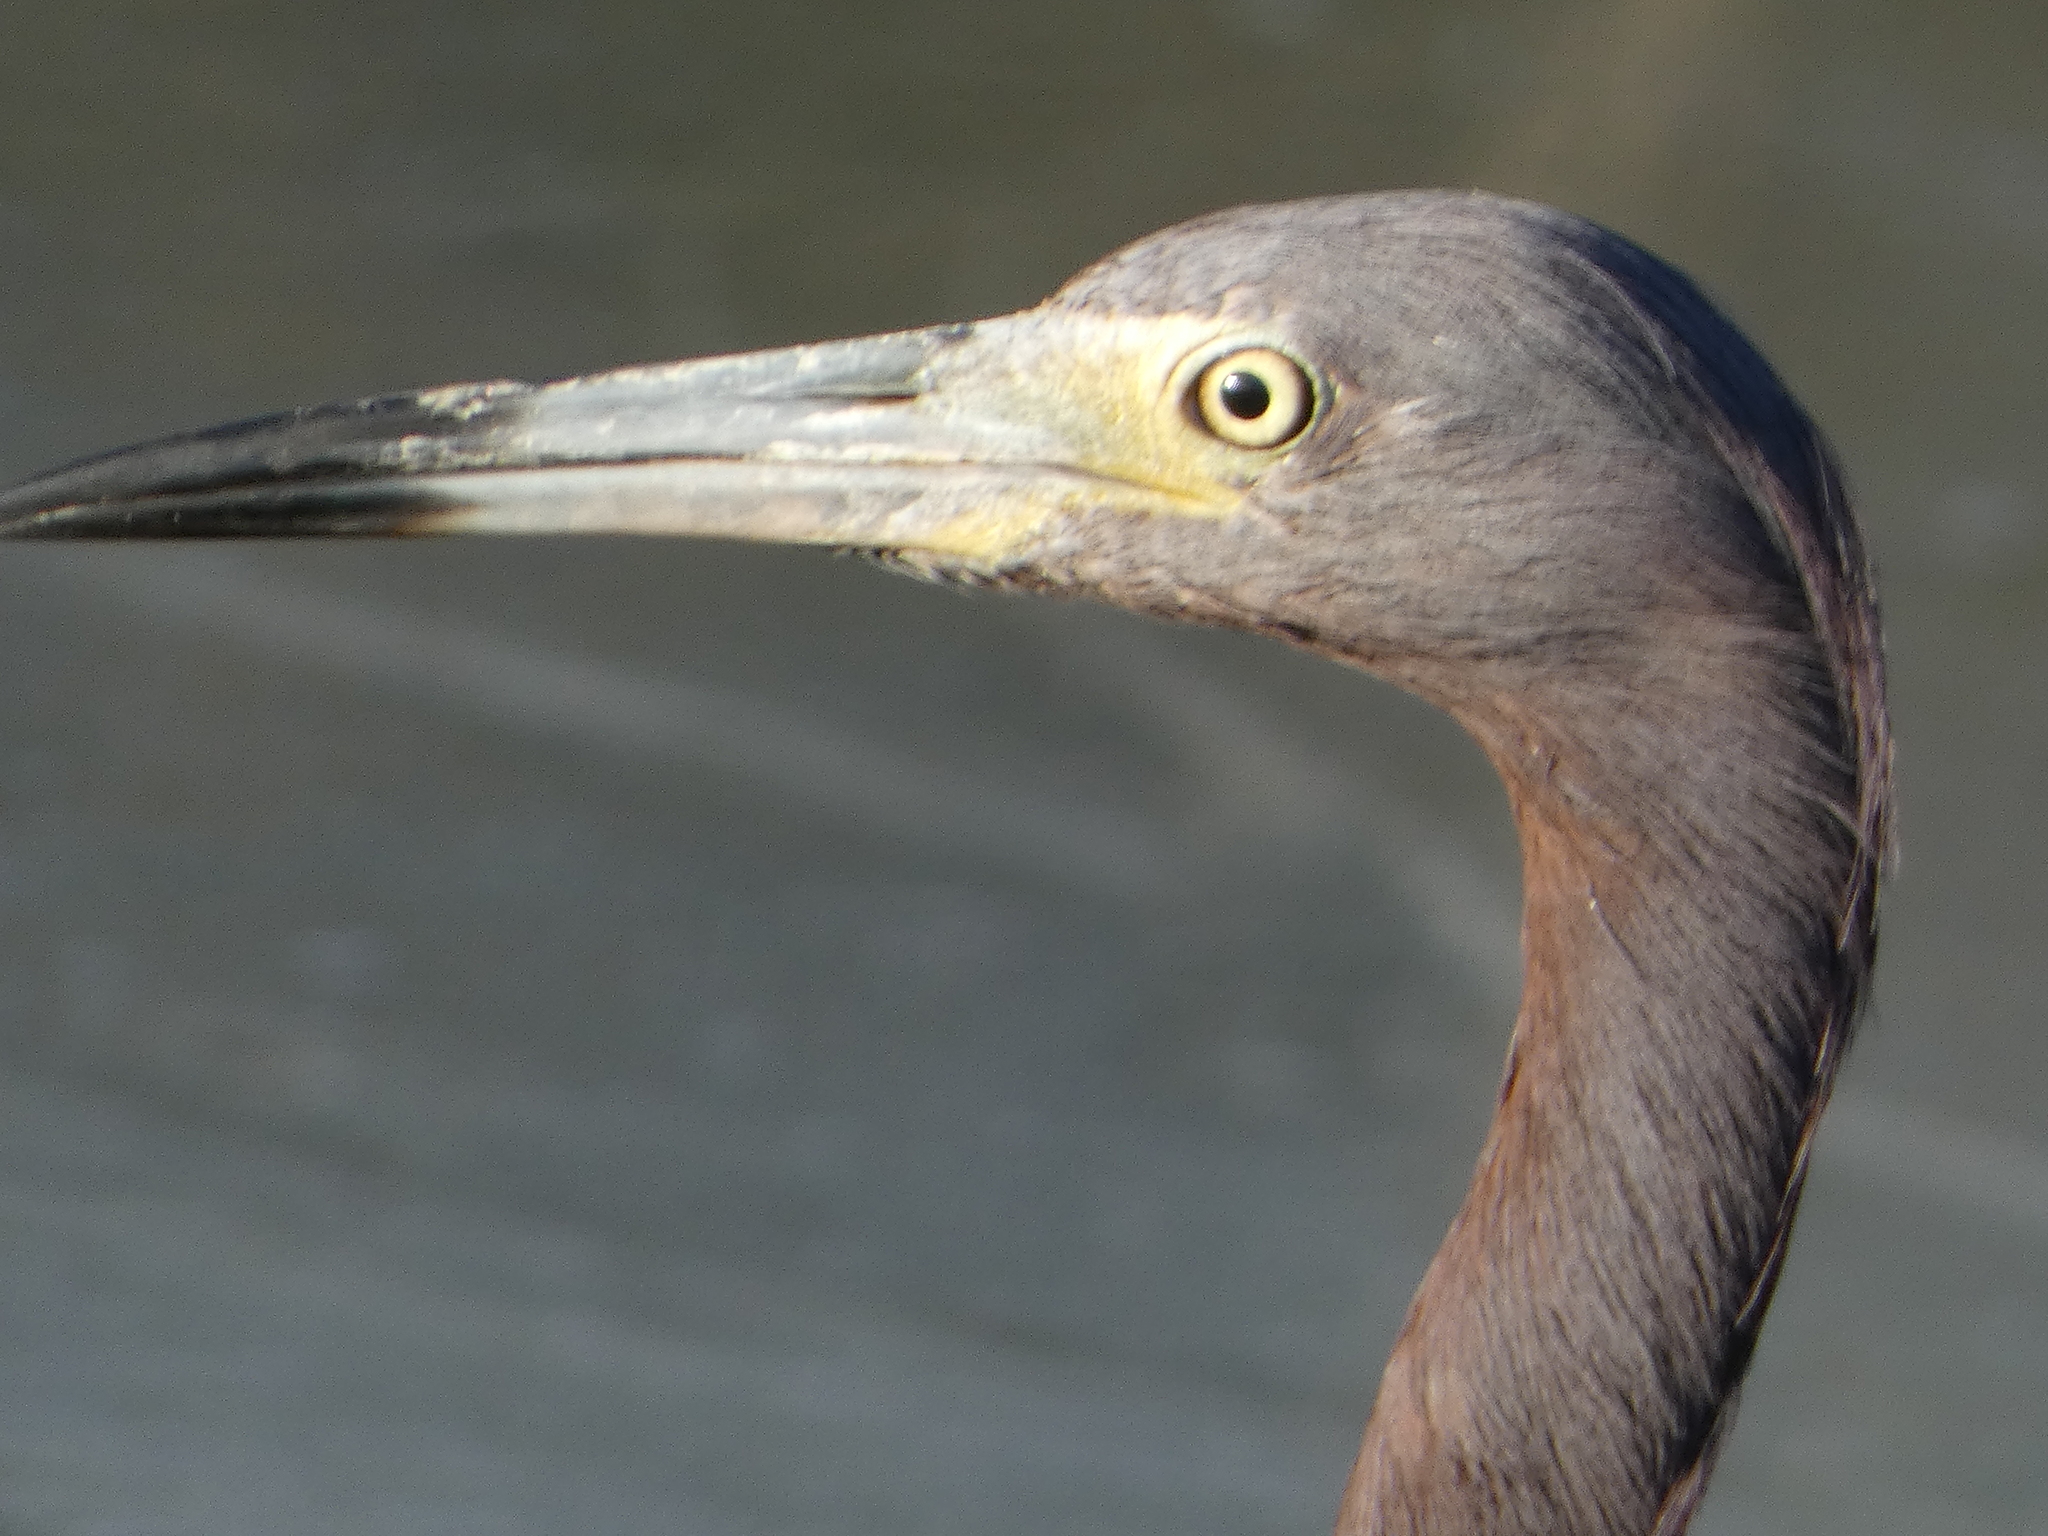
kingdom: Animalia
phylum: Chordata
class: Aves
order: Pelecaniformes
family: Ardeidae
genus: Egretta
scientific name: Egretta caerulea
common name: Little blue heron
